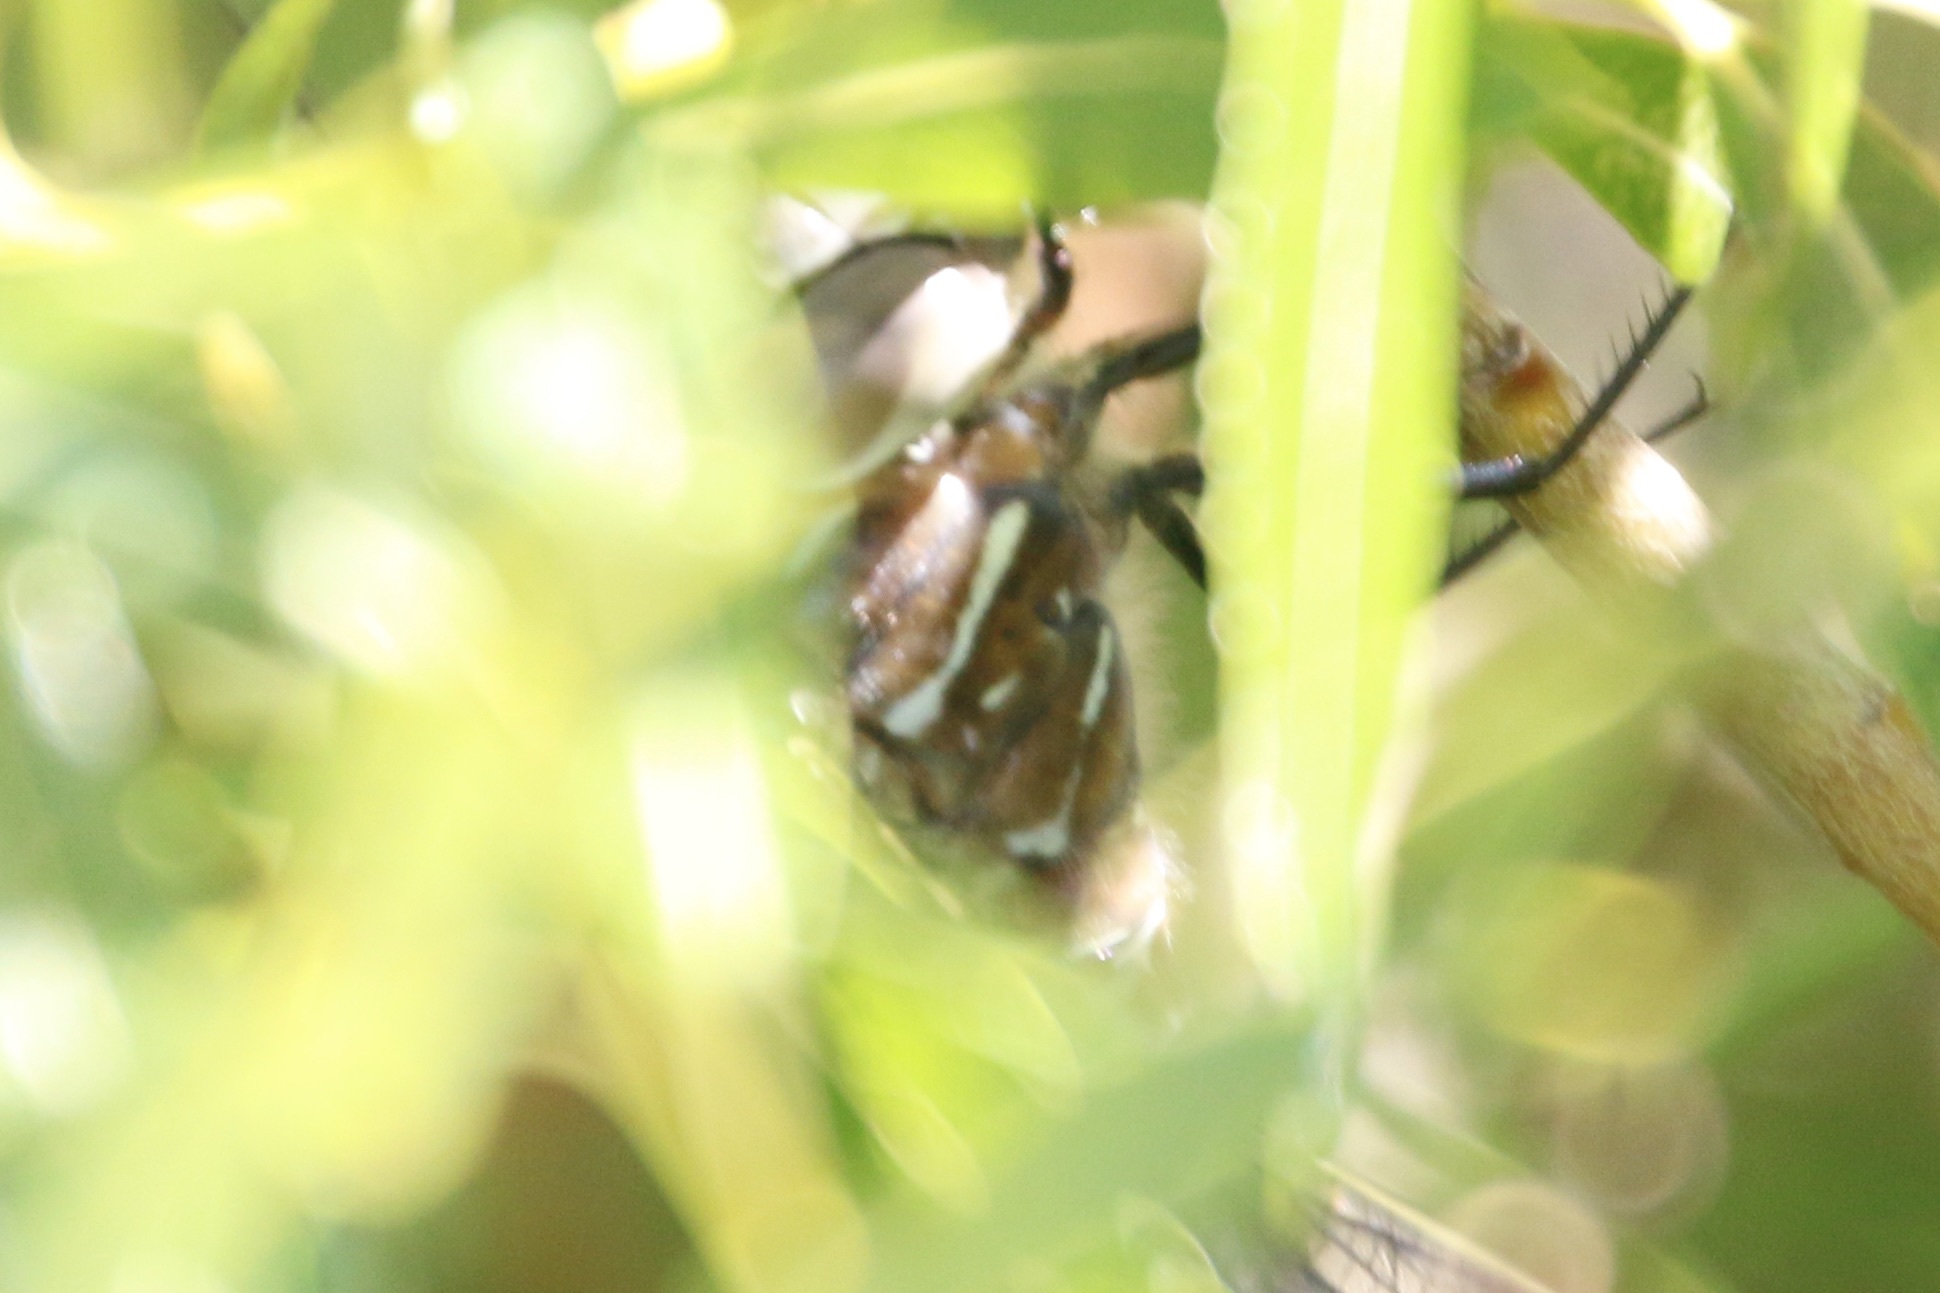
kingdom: Animalia
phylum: Arthropoda
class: Insecta
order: Odonata
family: Aeshnidae
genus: Aeshna
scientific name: Aeshna interrupta
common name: Variable darner
